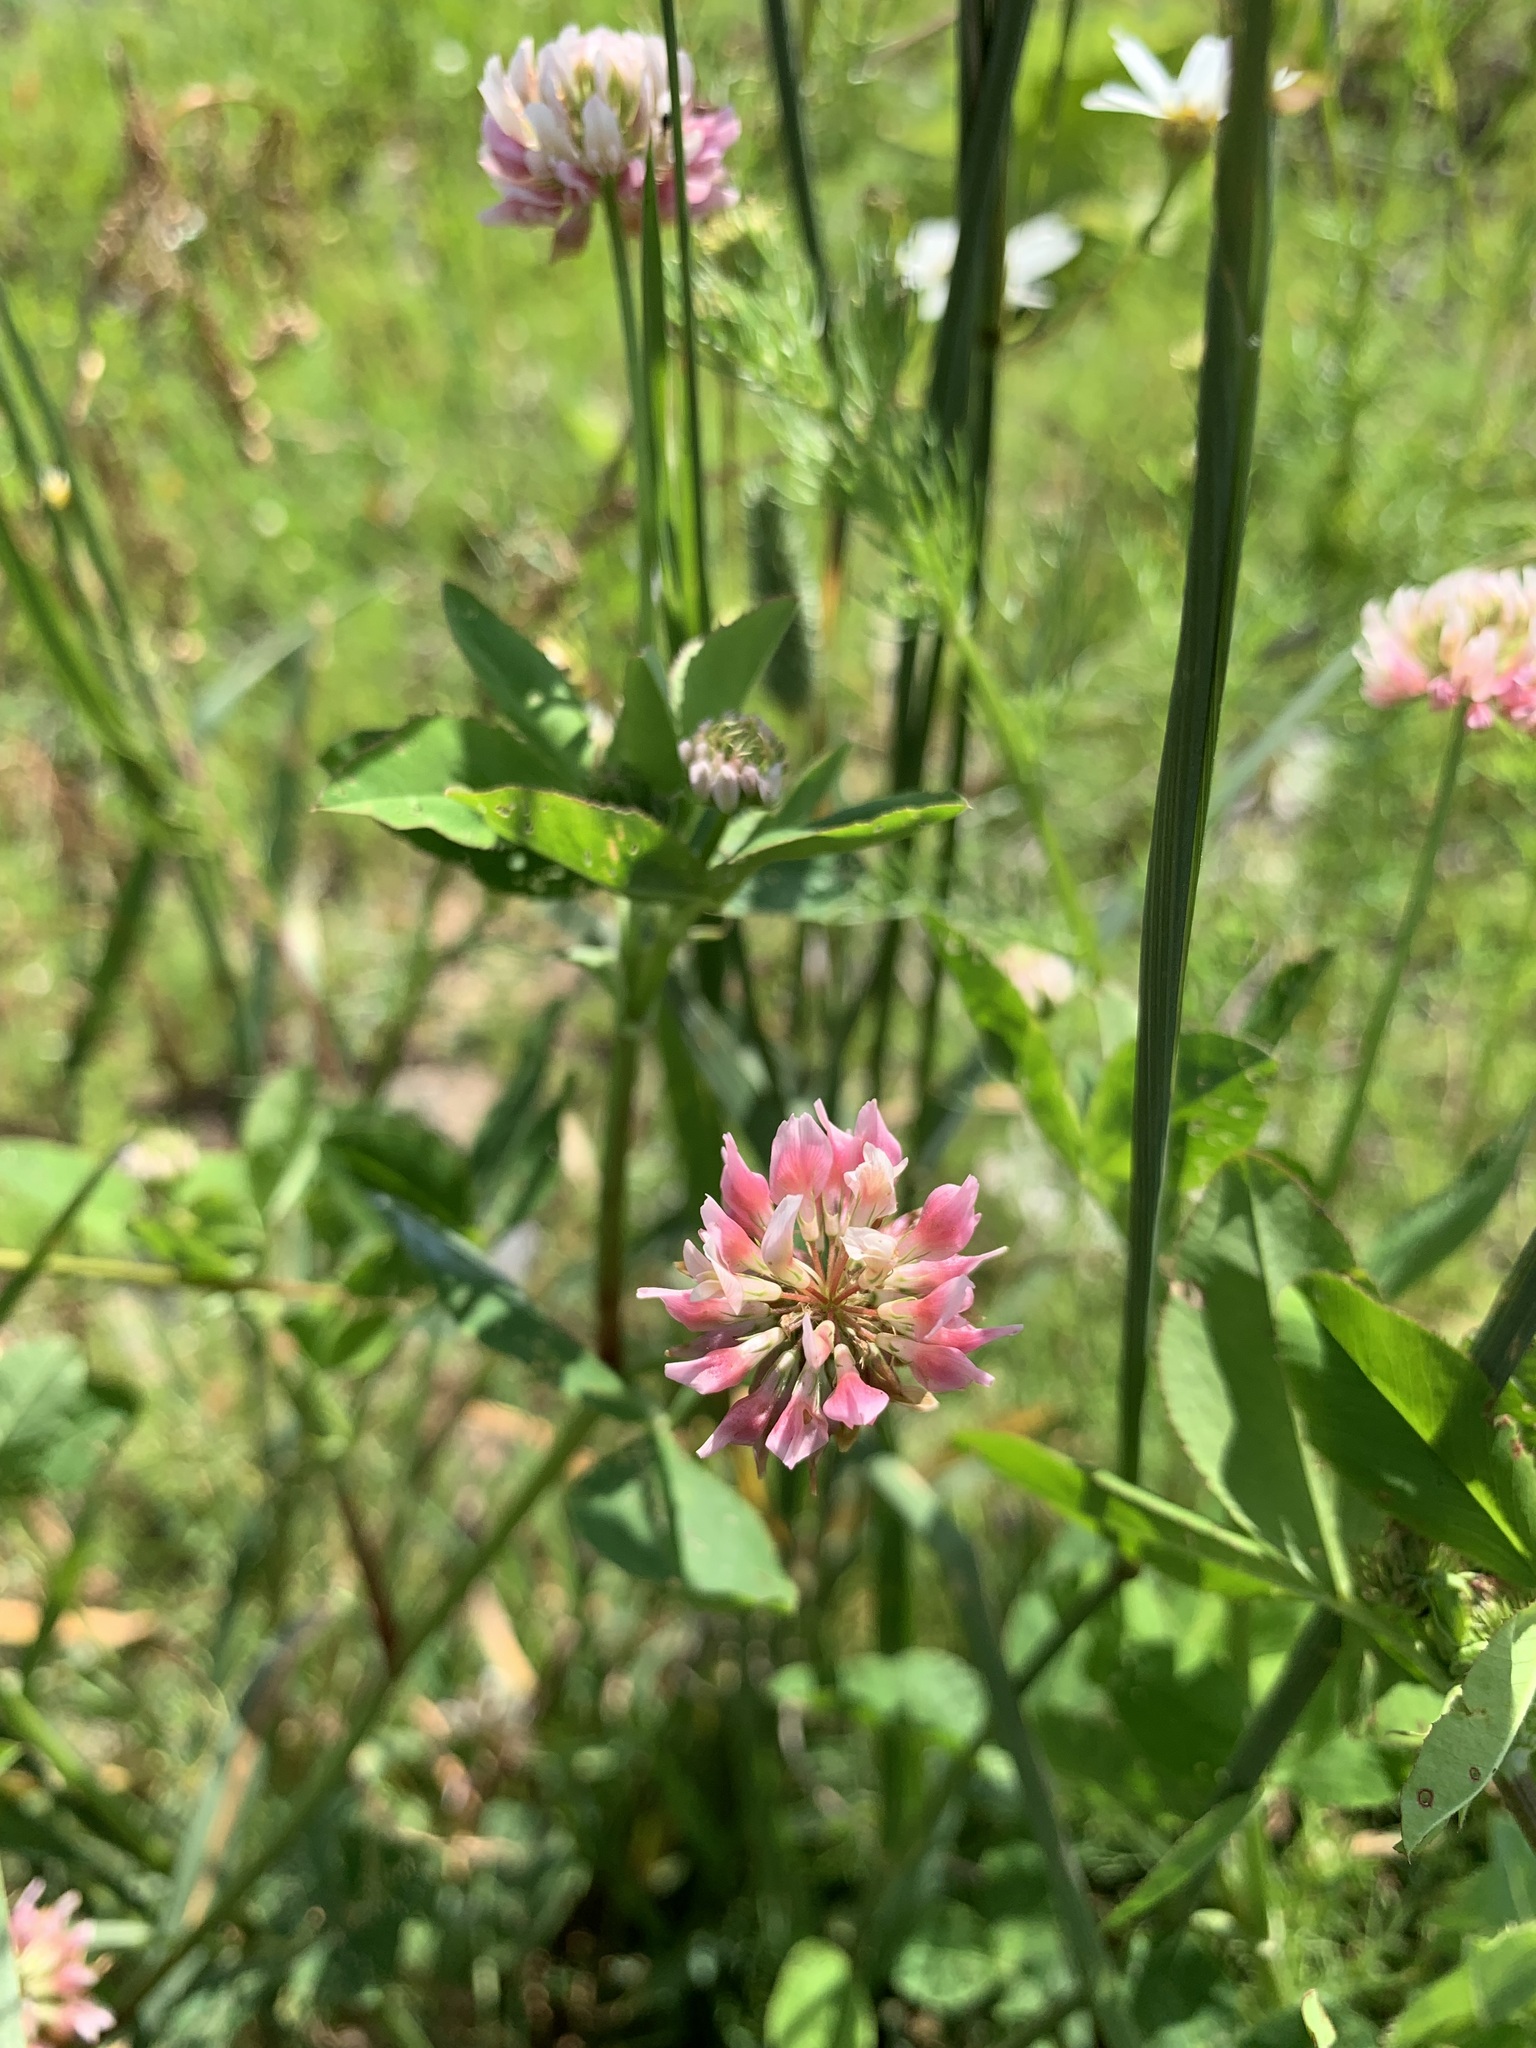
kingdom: Plantae
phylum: Tracheophyta
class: Magnoliopsida
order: Fabales
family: Fabaceae
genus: Trifolium
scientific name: Trifolium hybridum
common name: Alsike clover
